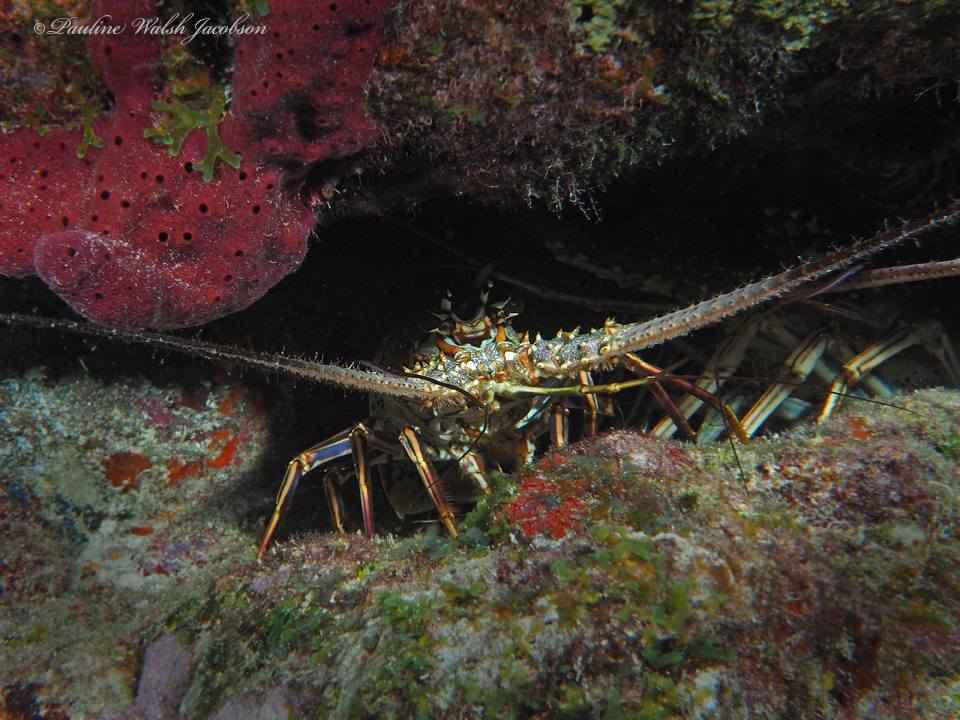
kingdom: Animalia
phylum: Arthropoda
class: Malacostraca
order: Decapoda
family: Palinuridae
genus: Panulirus
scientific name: Panulirus argus
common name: Caribbean spiny lobster
